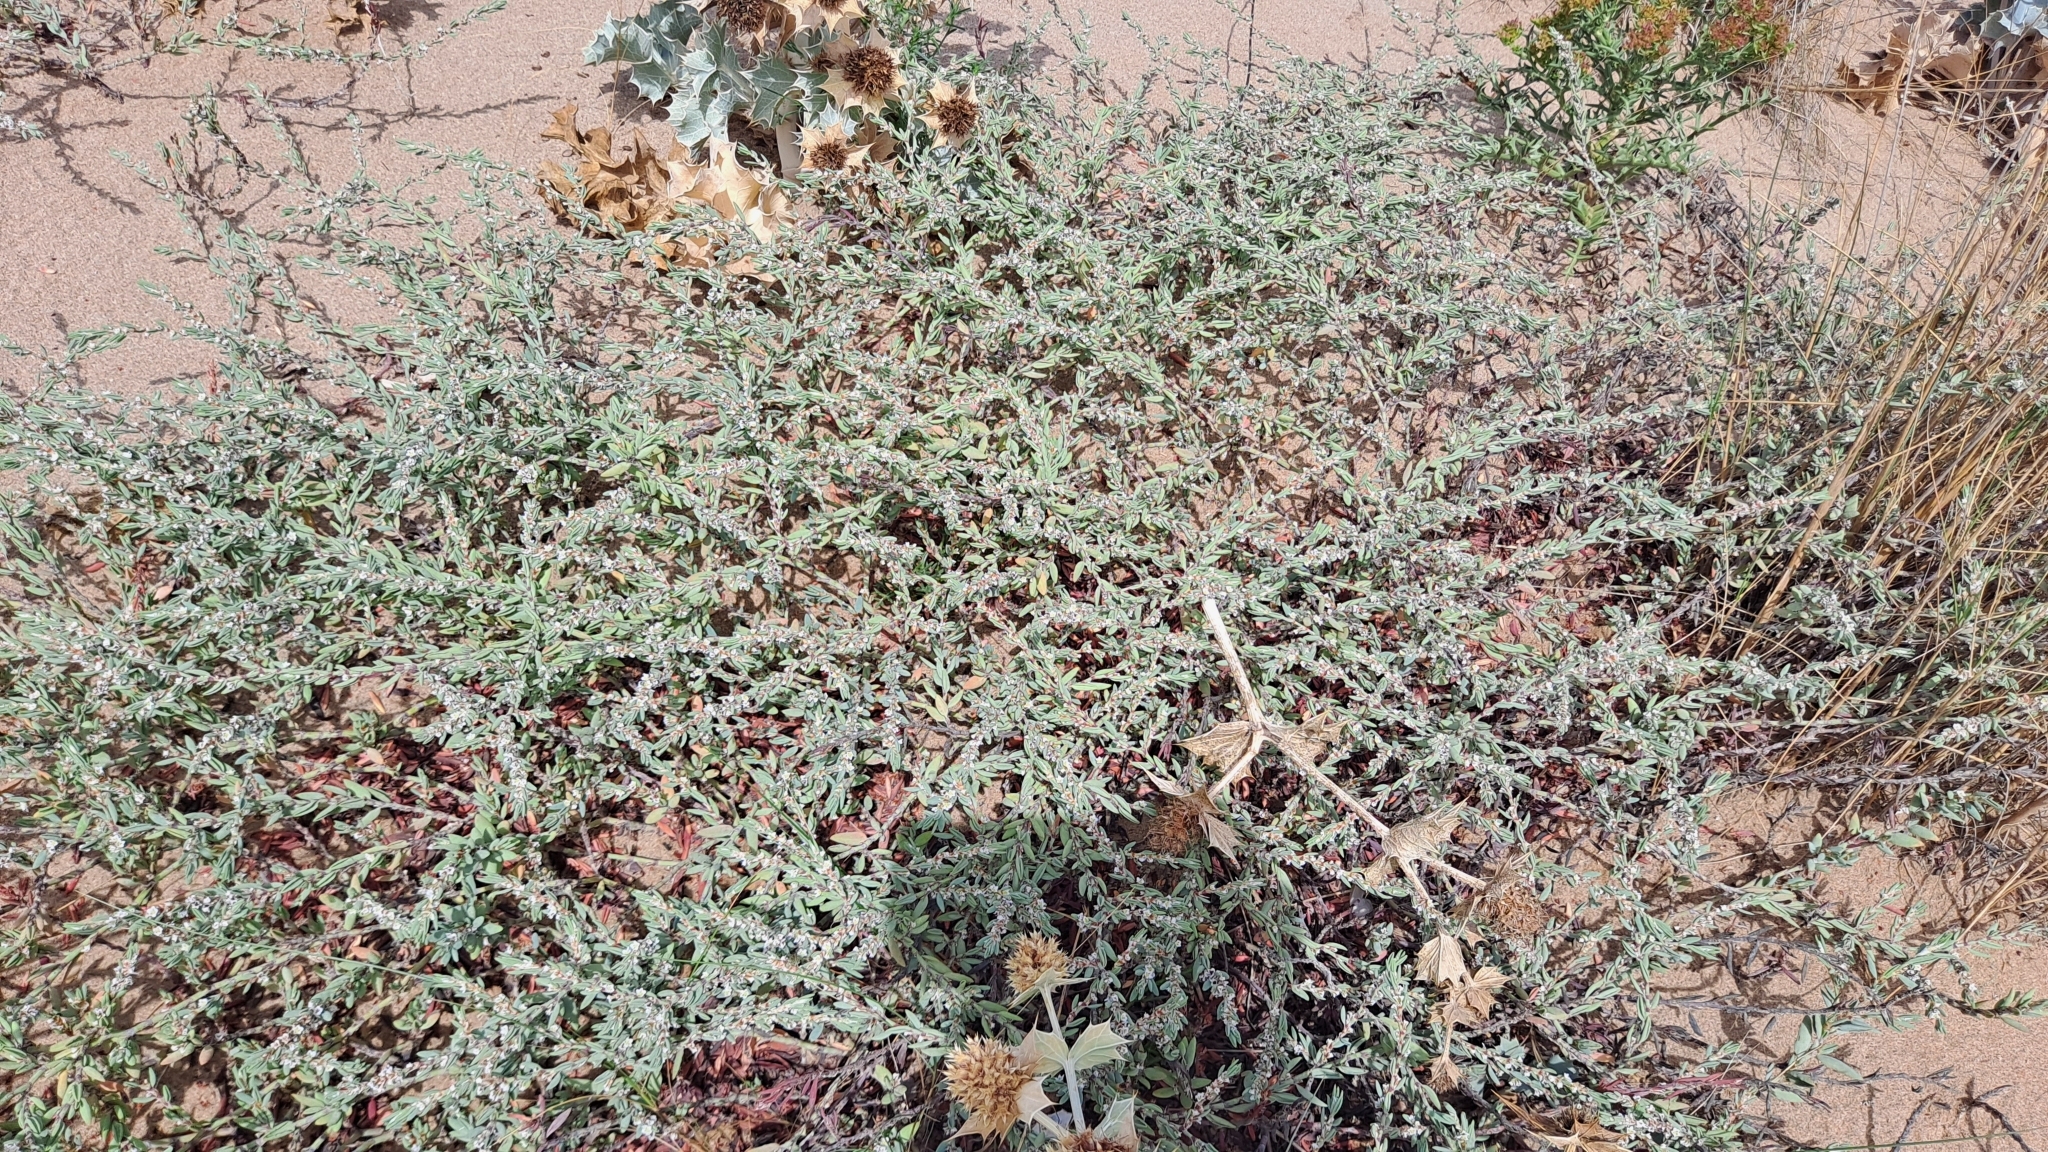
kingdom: Plantae
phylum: Tracheophyta
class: Magnoliopsida
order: Caryophyllales
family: Polygonaceae
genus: Polygonum
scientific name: Polygonum maritimum
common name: Sea knotgrass
